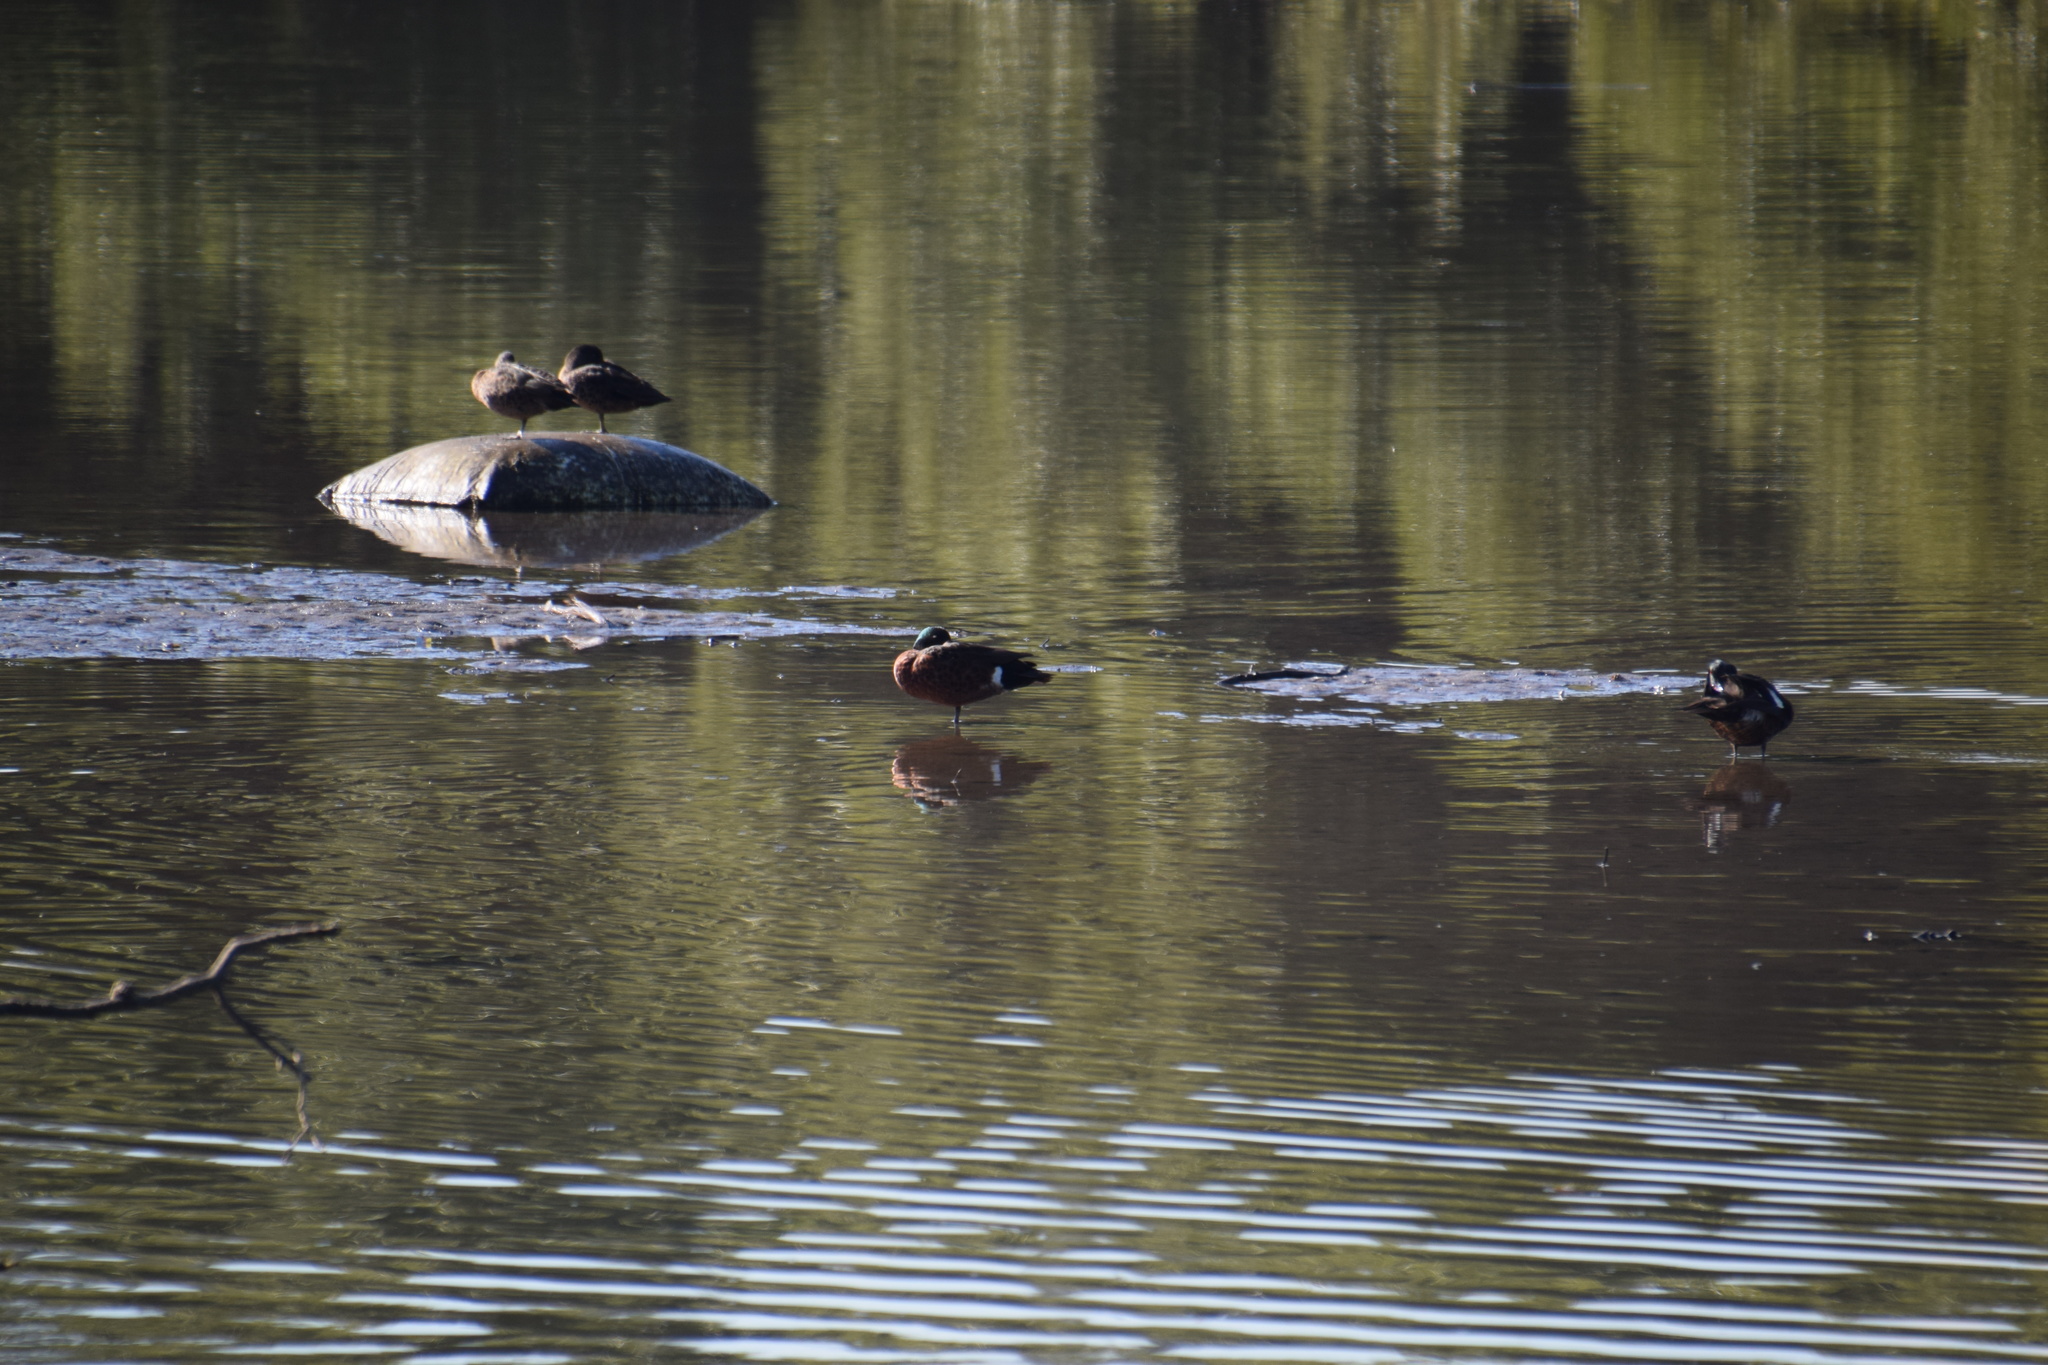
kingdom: Animalia
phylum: Chordata
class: Aves
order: Anseriformes
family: Anatidae
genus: Anas
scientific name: Anas castanea
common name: Chestnut teal
